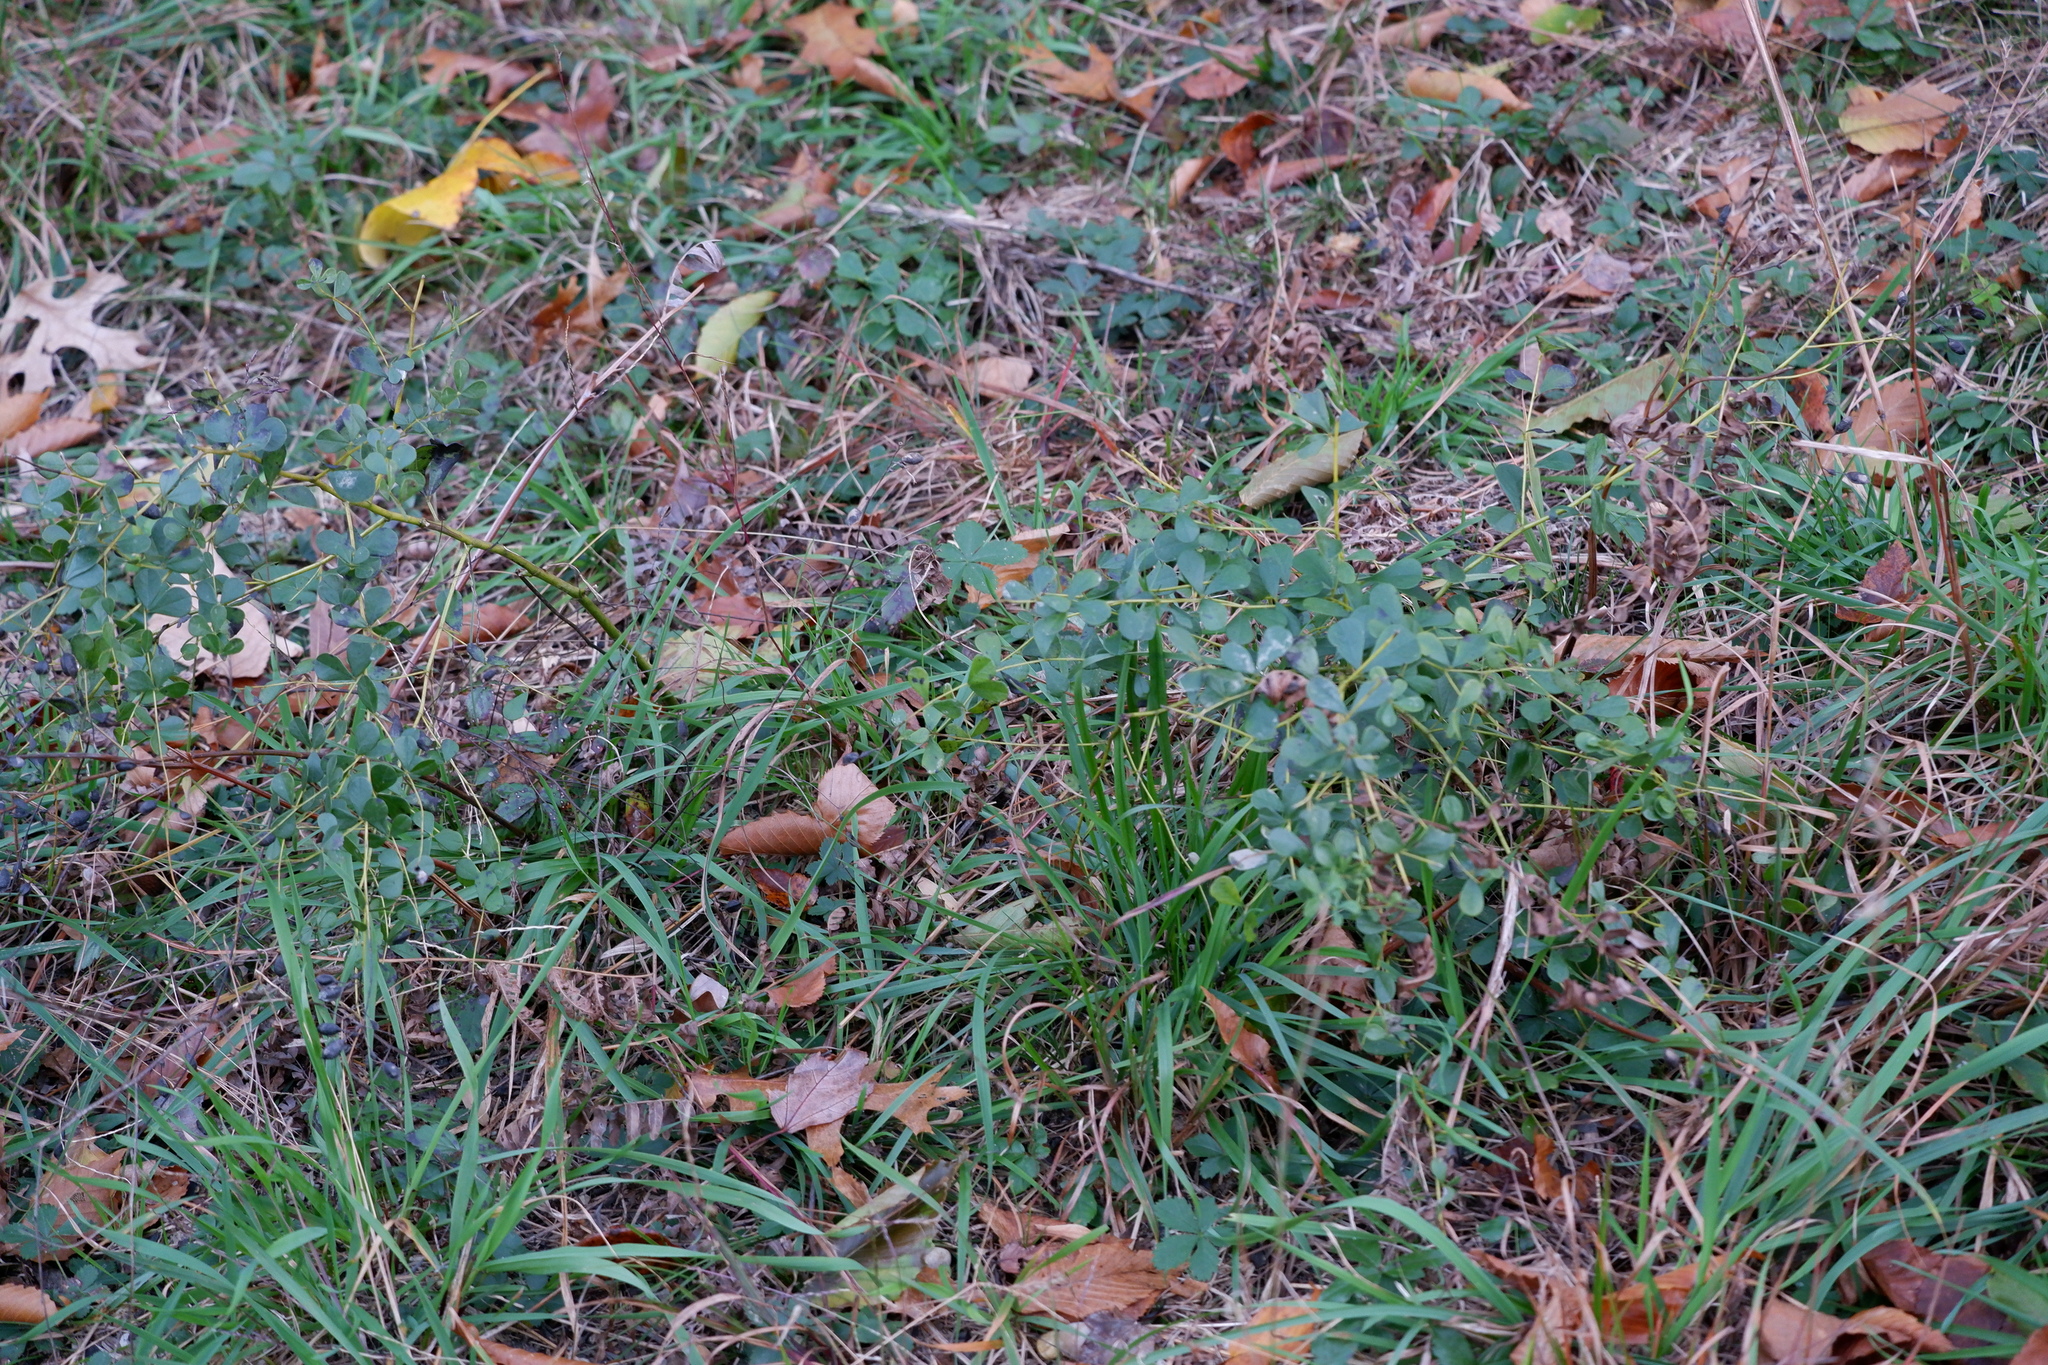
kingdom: Plantae
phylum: Tracheophyta
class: Magnoliopsida
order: Fabales
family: Fabaceae
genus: Baptisia
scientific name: Baptisia tinctoria
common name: Wild indigo
